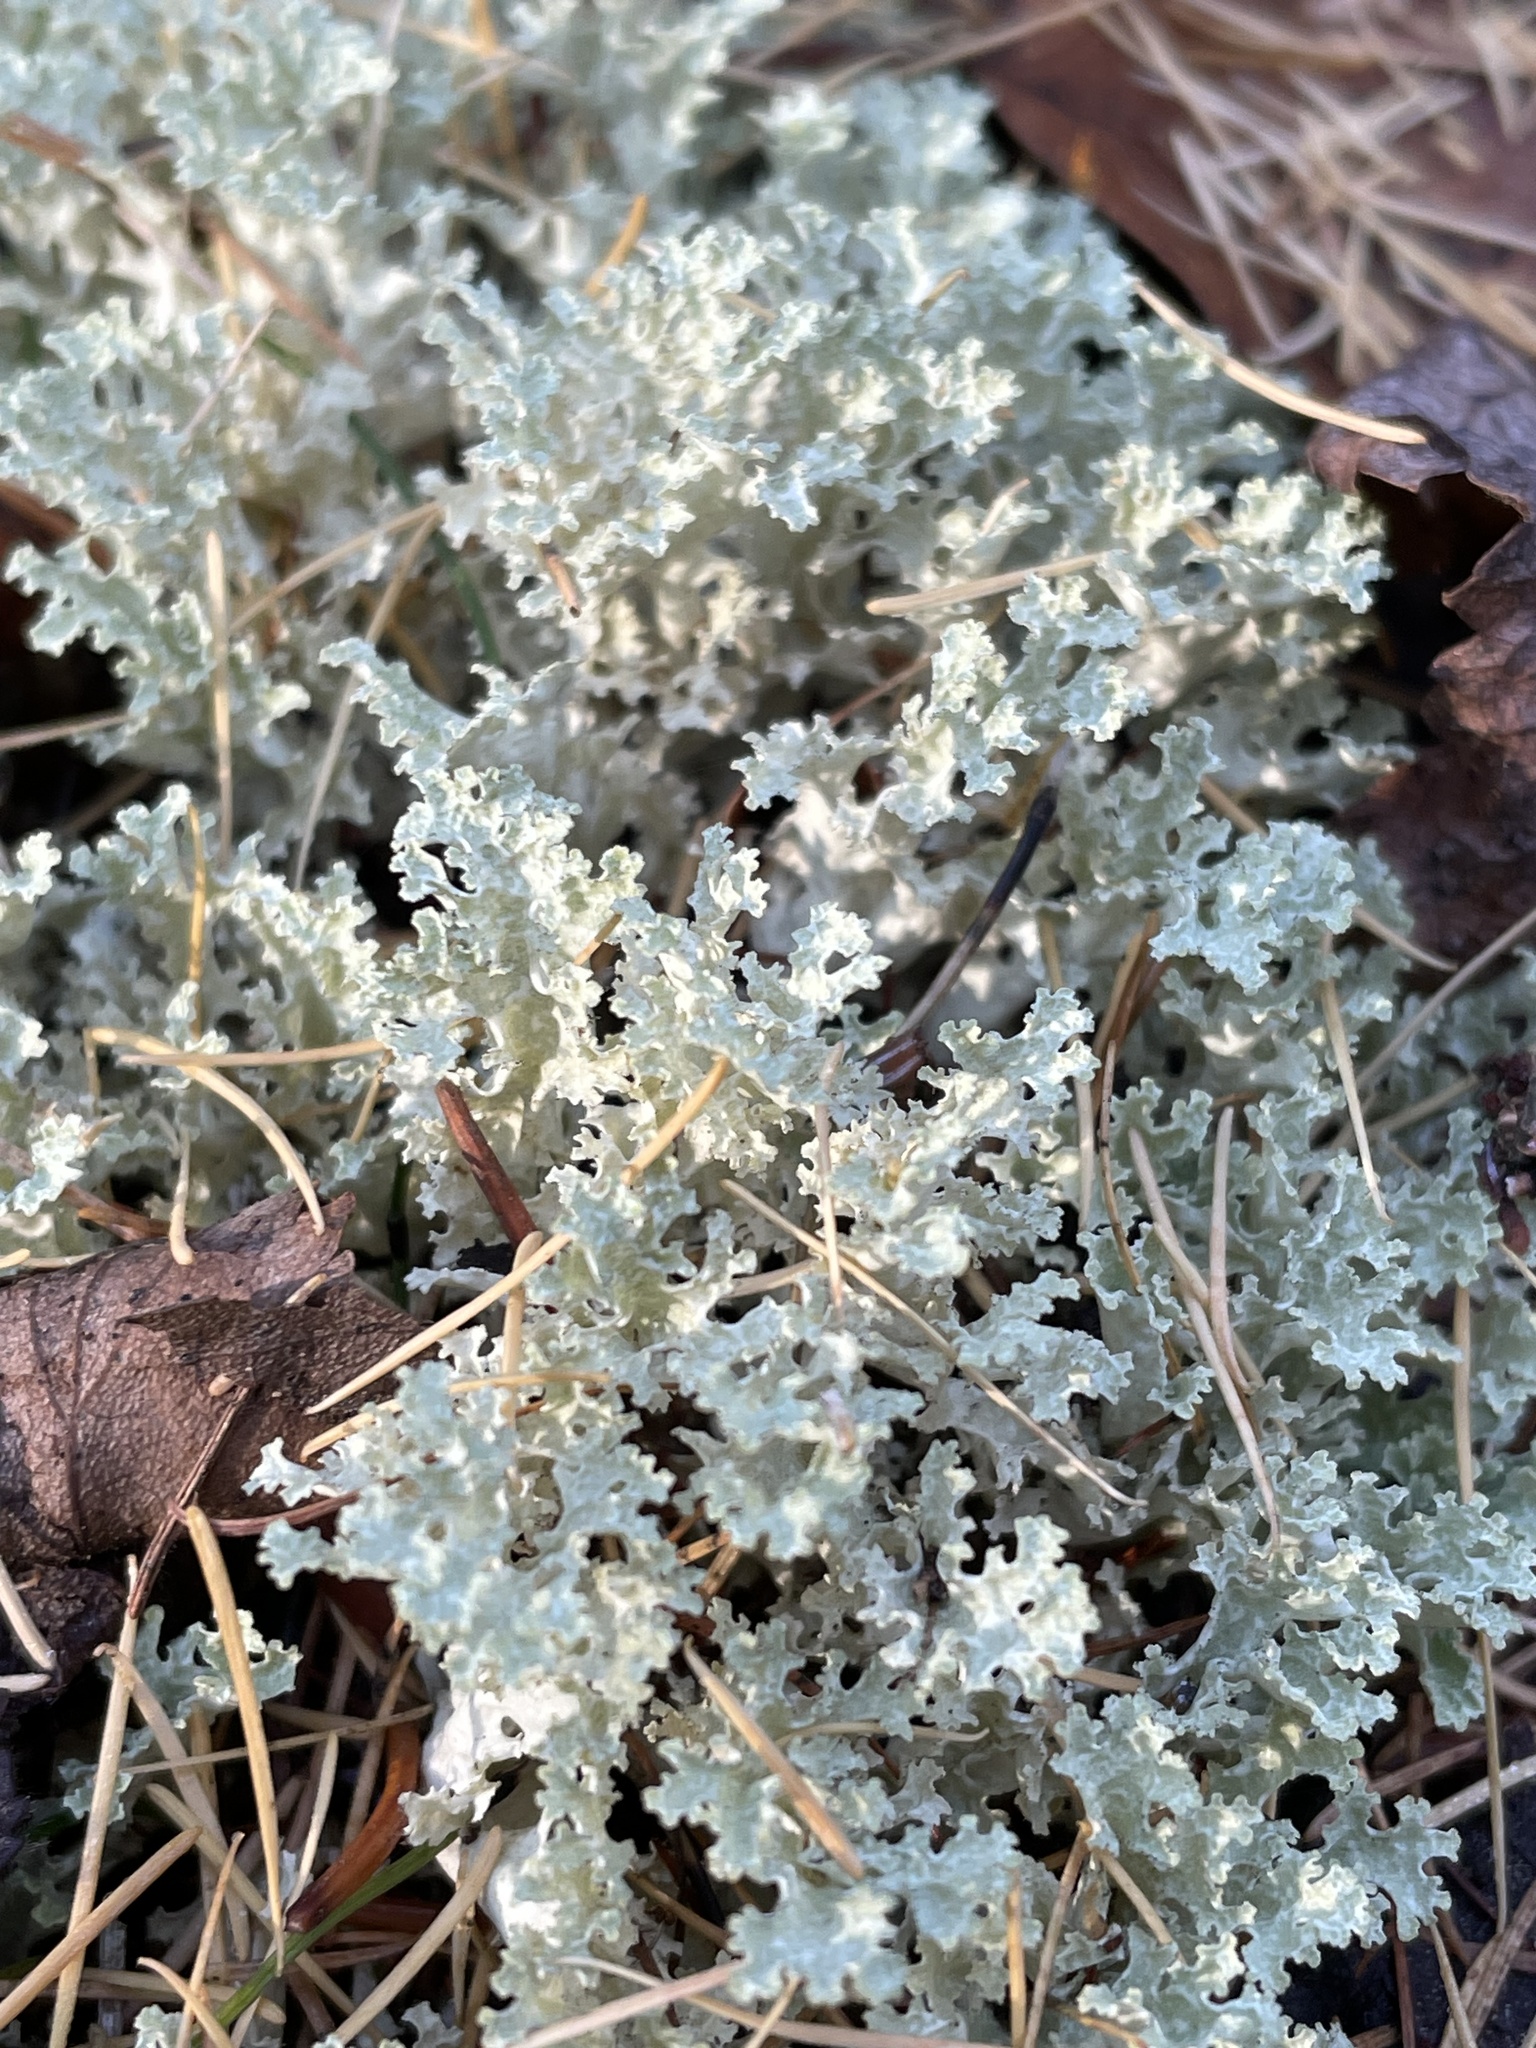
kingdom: Fungi
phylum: Ascomycota
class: Lecanoromycetes
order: Lecanorales
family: Parmeliaceae
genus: Nephromopsis
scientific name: Nephromopsis nivalis
